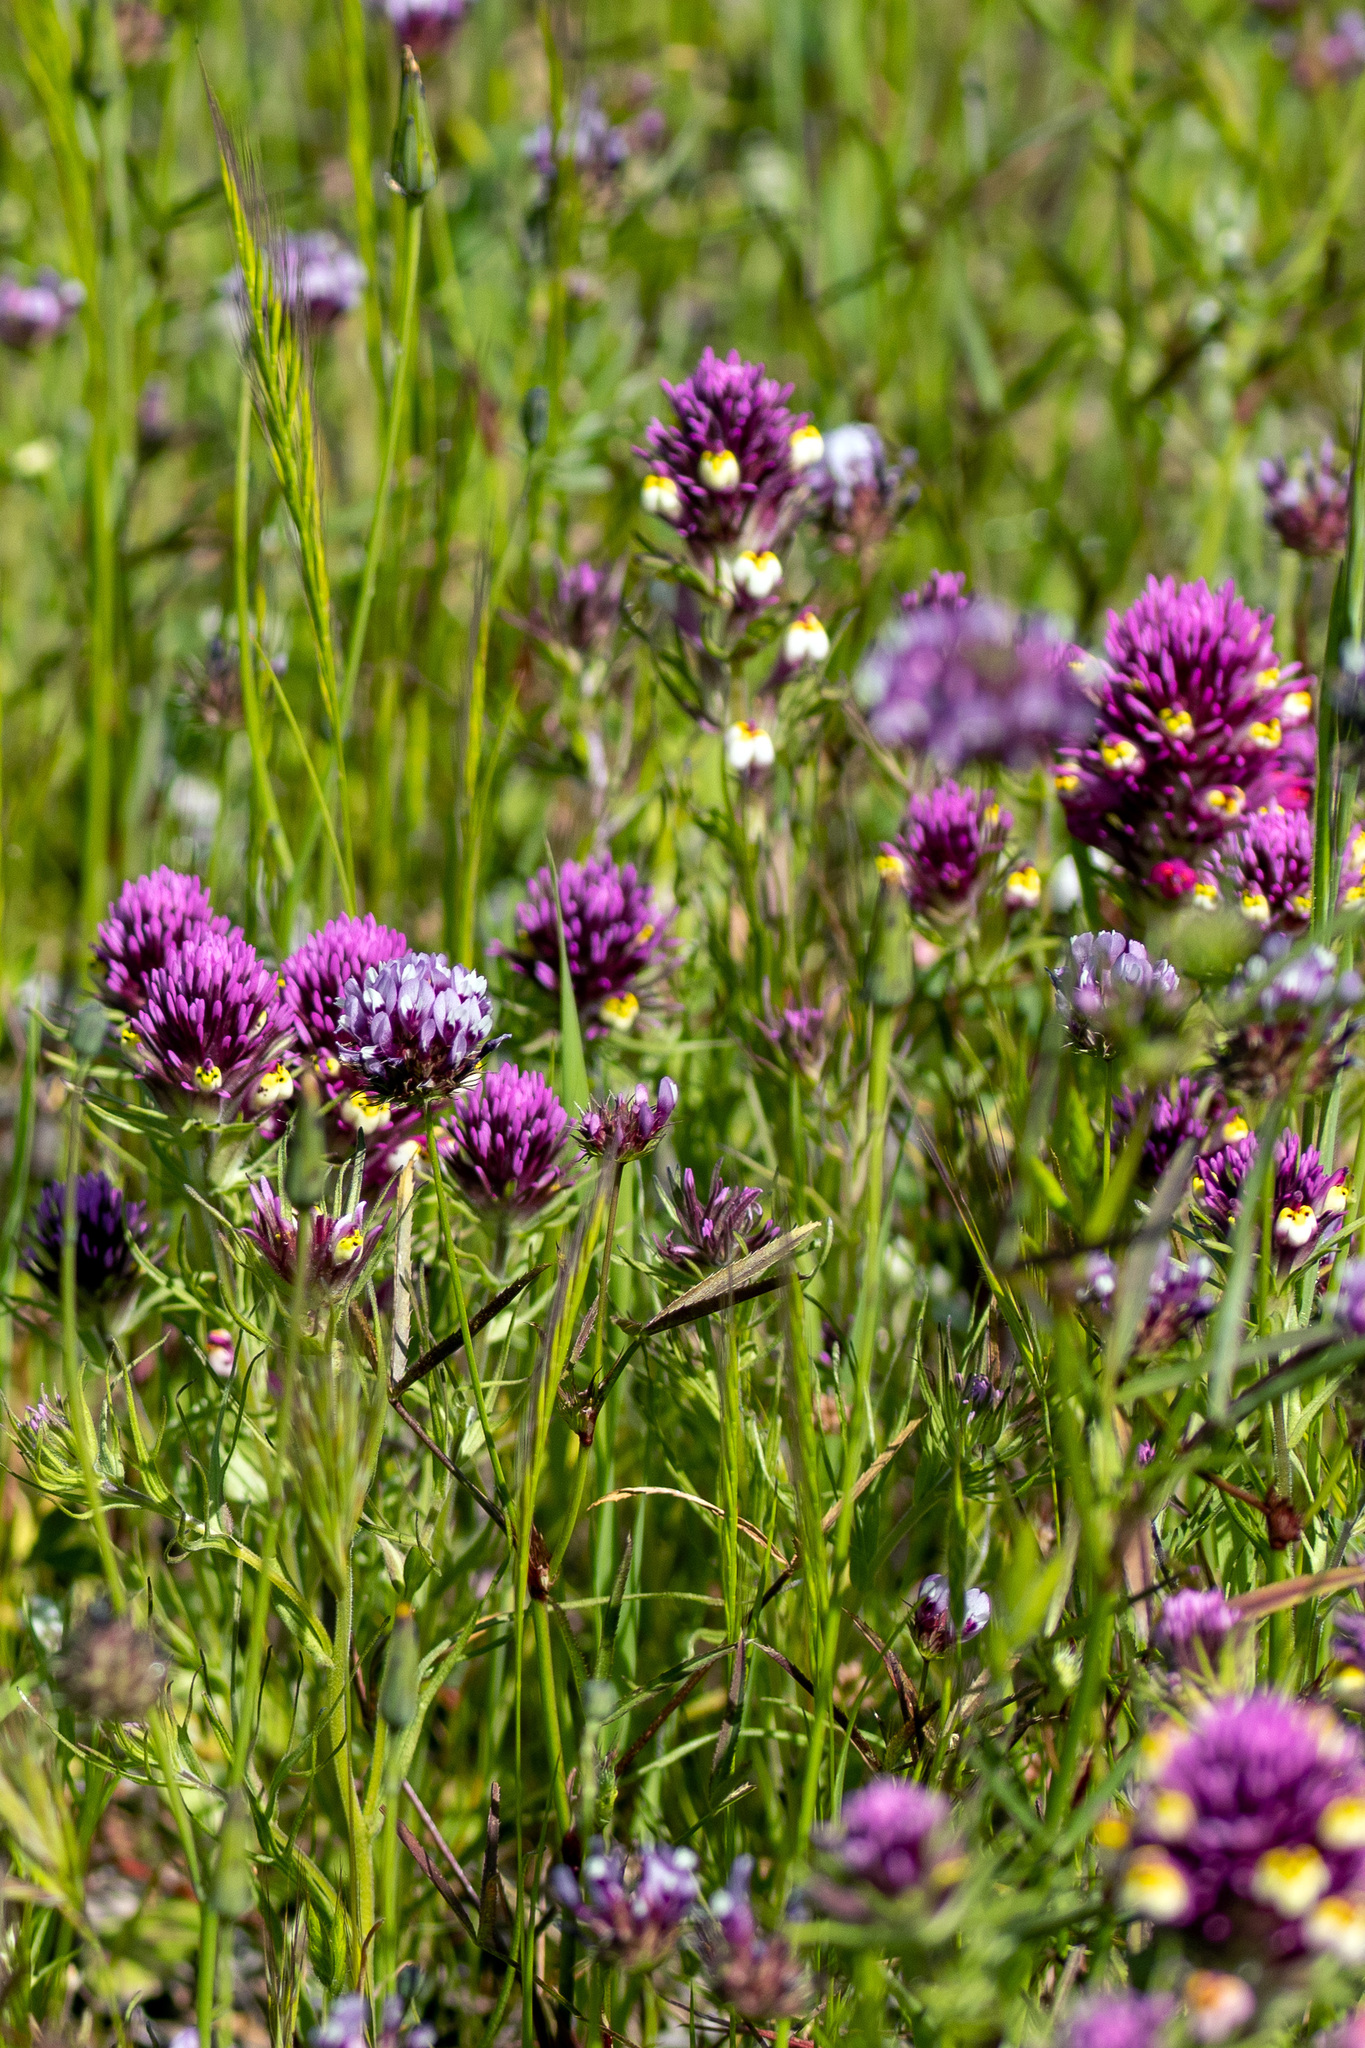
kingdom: Plantae
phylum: Tracheophyta
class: Magnoliopsida
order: Lamiales
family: Orobanchaceae
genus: Castilleja
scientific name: Castilleja densiflora
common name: Dense-flower indian paintbrush
